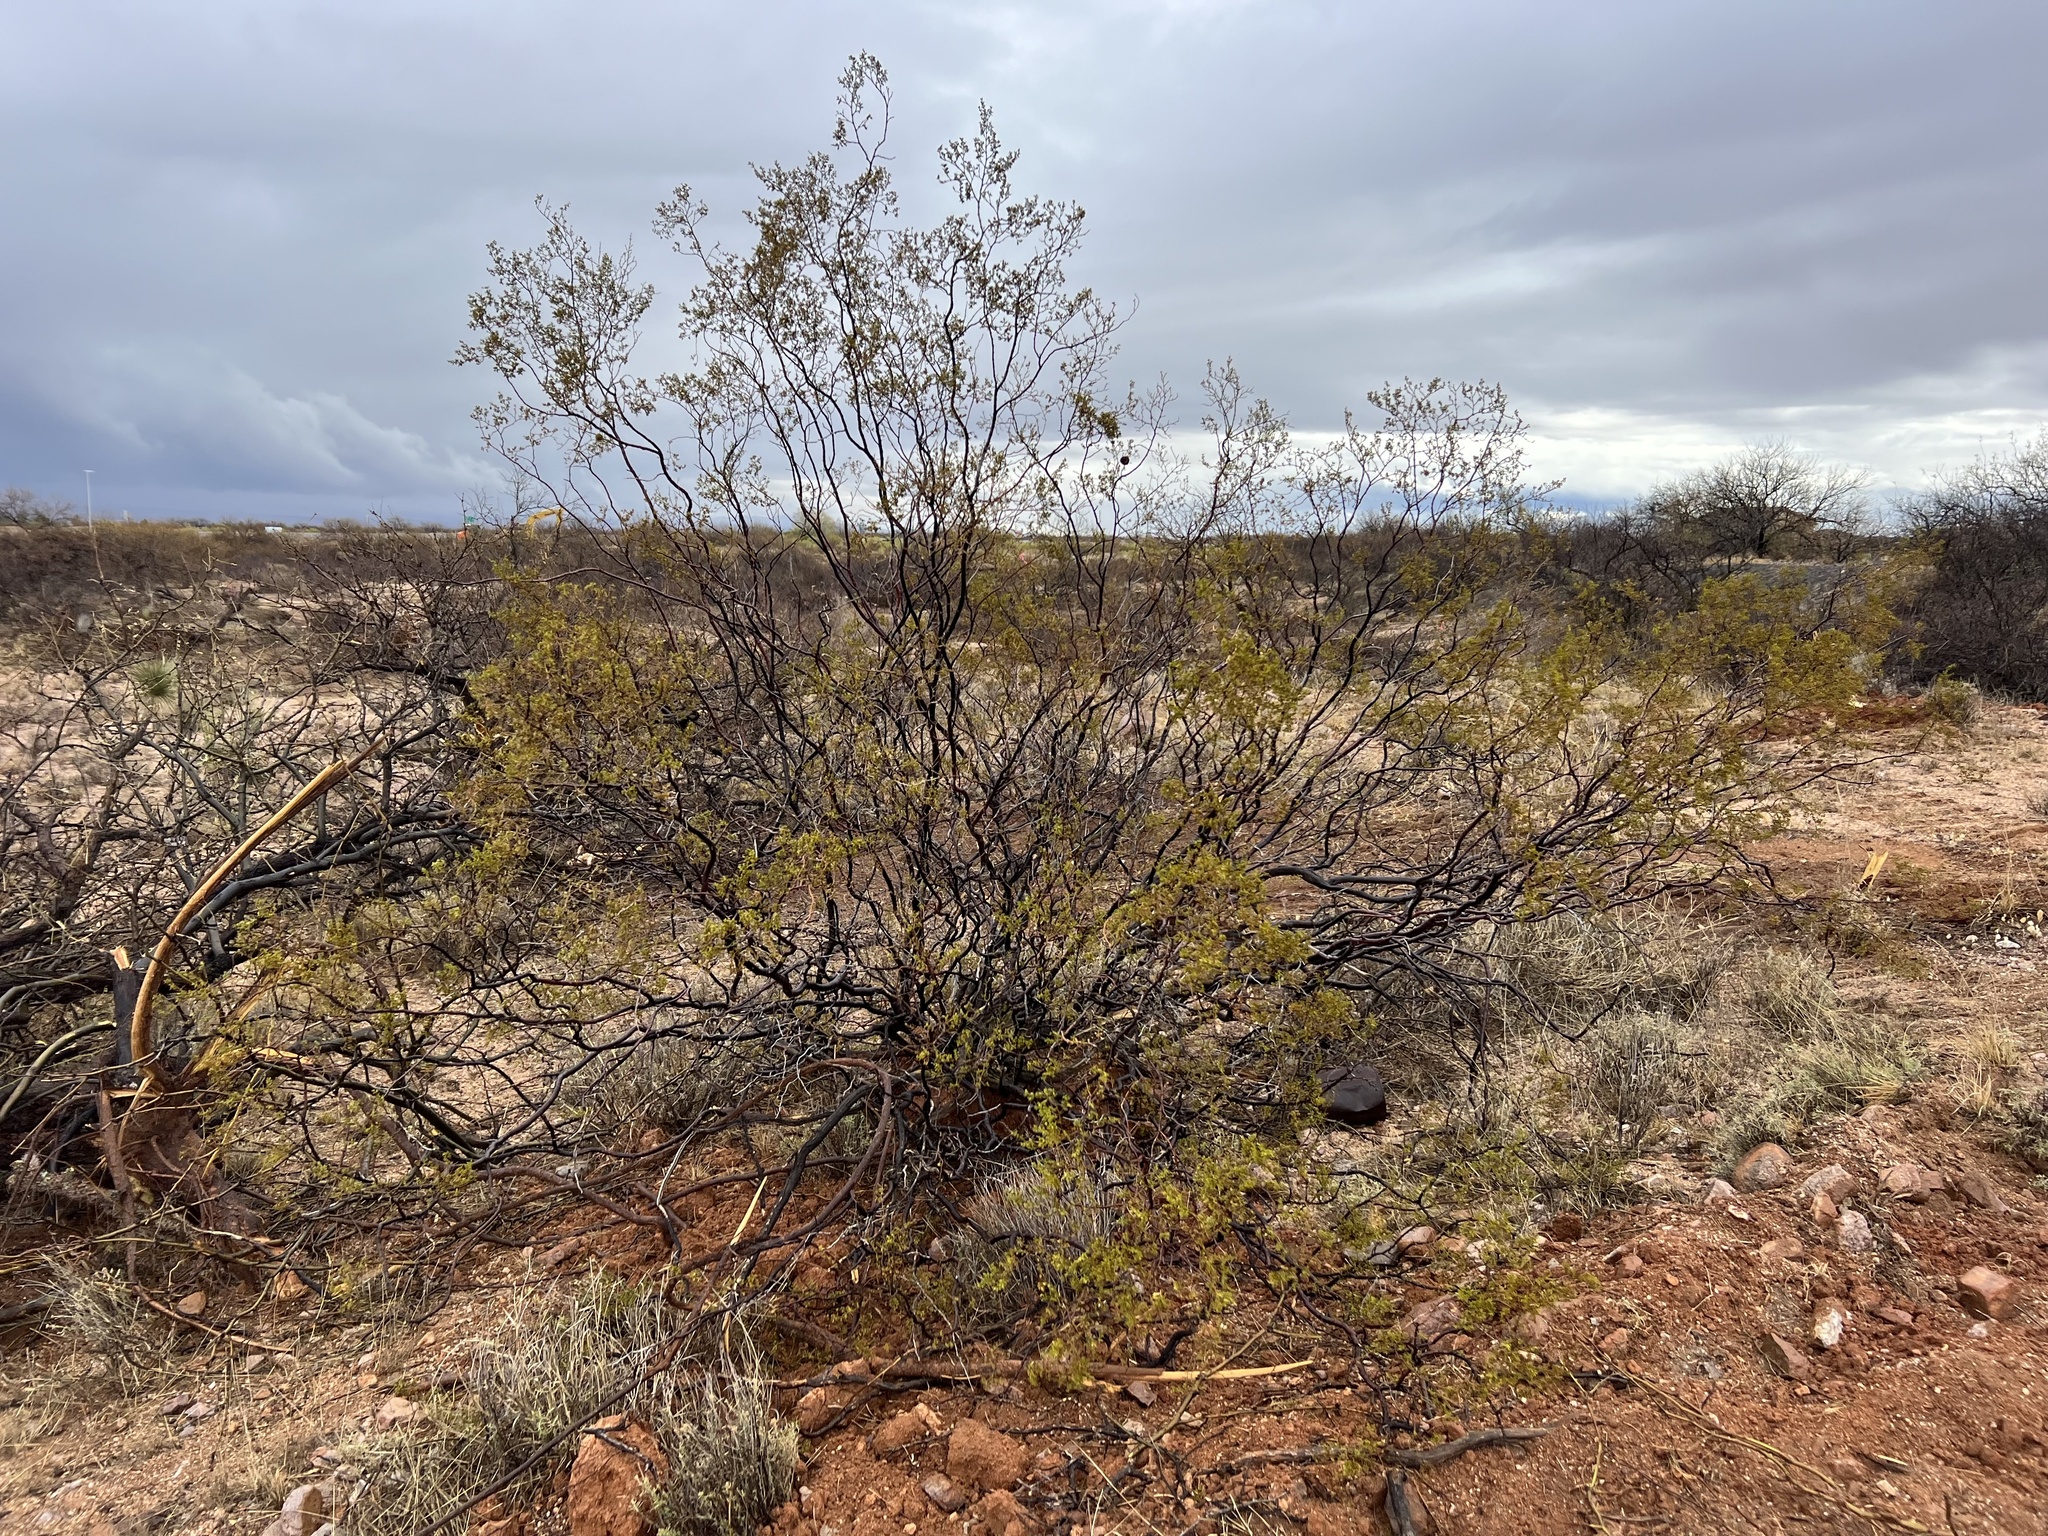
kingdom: Plantae
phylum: Tracheophyta
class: Magnoliopsida
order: Zygophyllales
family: Zygophyllaceae
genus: Larrea
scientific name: Larrea tridentata
